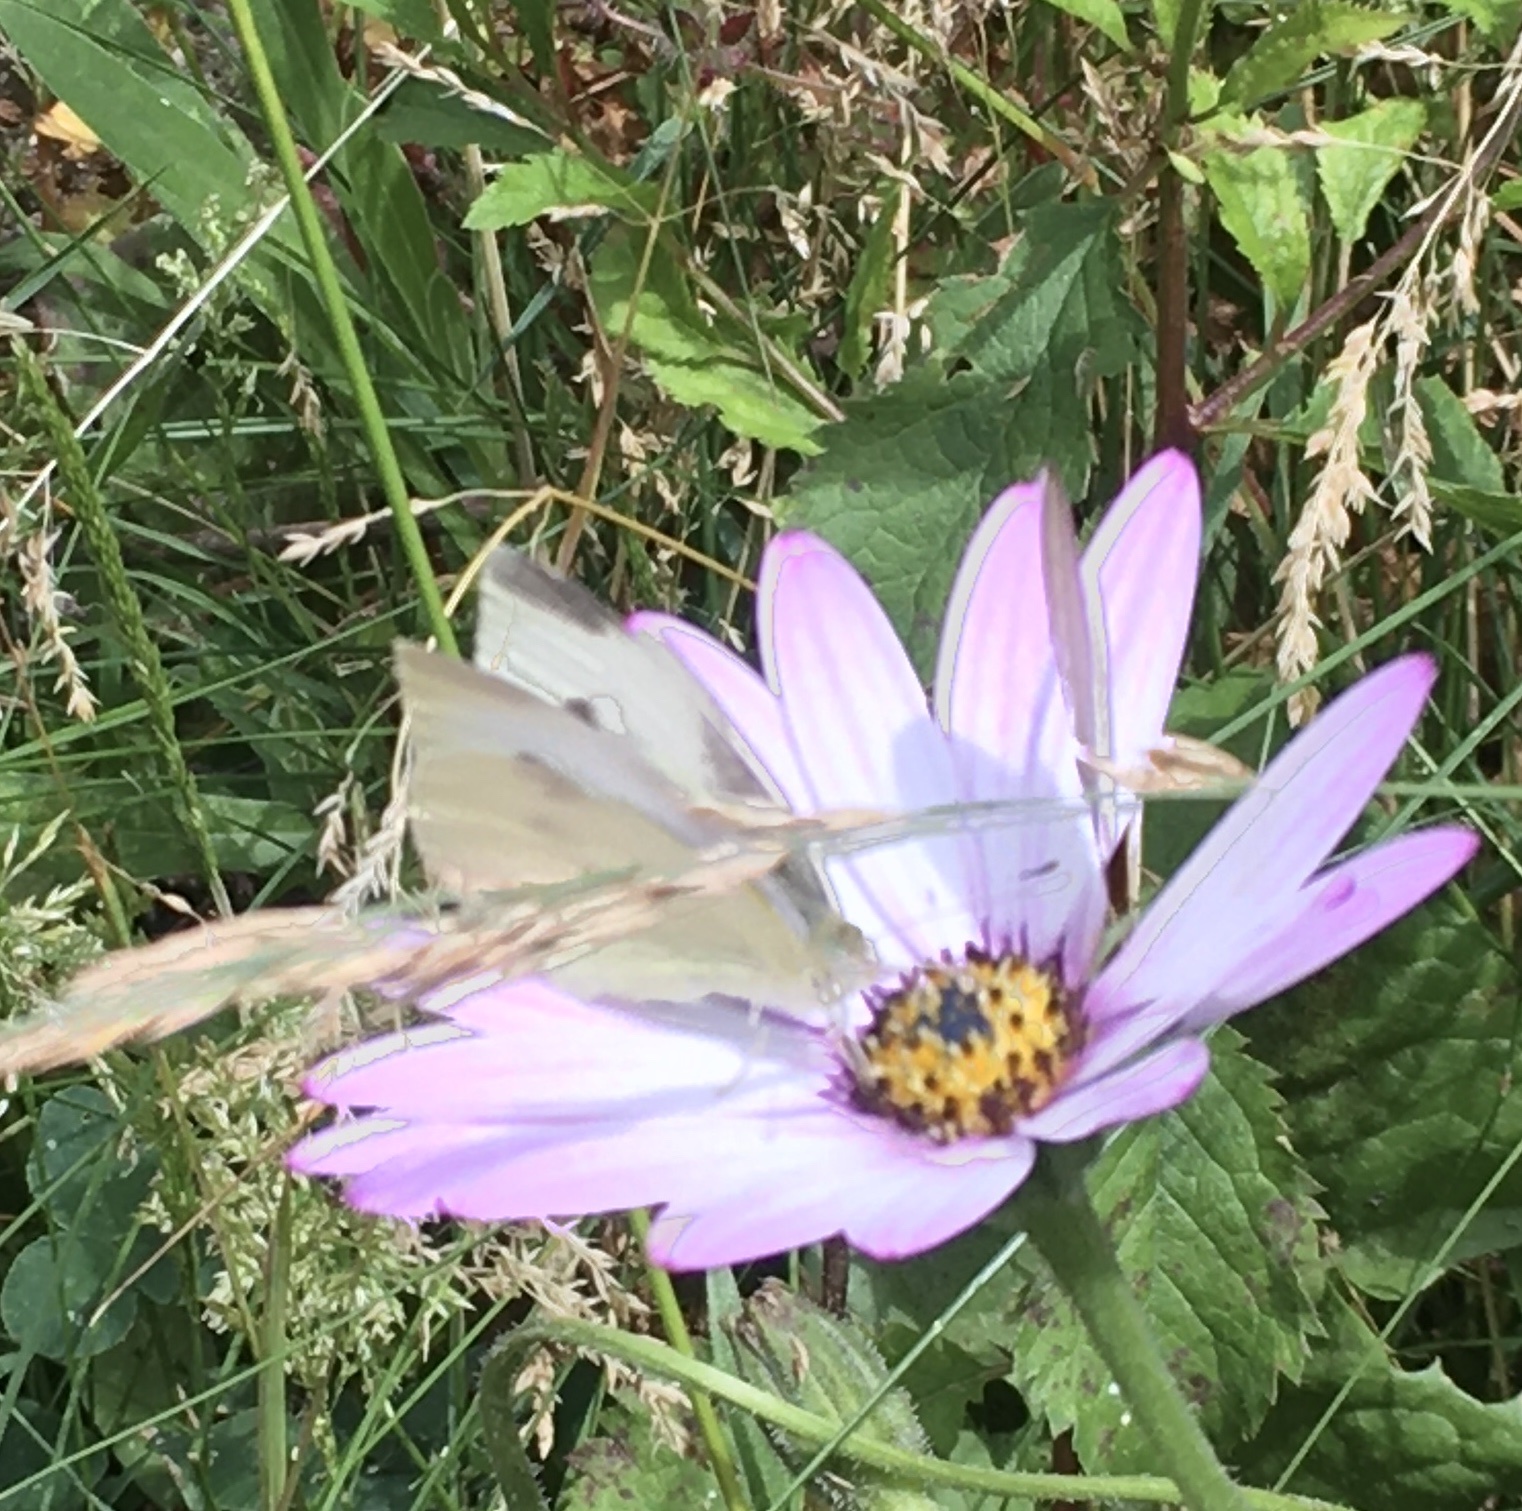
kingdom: Animalia
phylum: Arthropoda
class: Insecta
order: Lepidoptera
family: Pieridae
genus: Pieris
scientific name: Pieris rapae
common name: Small white
